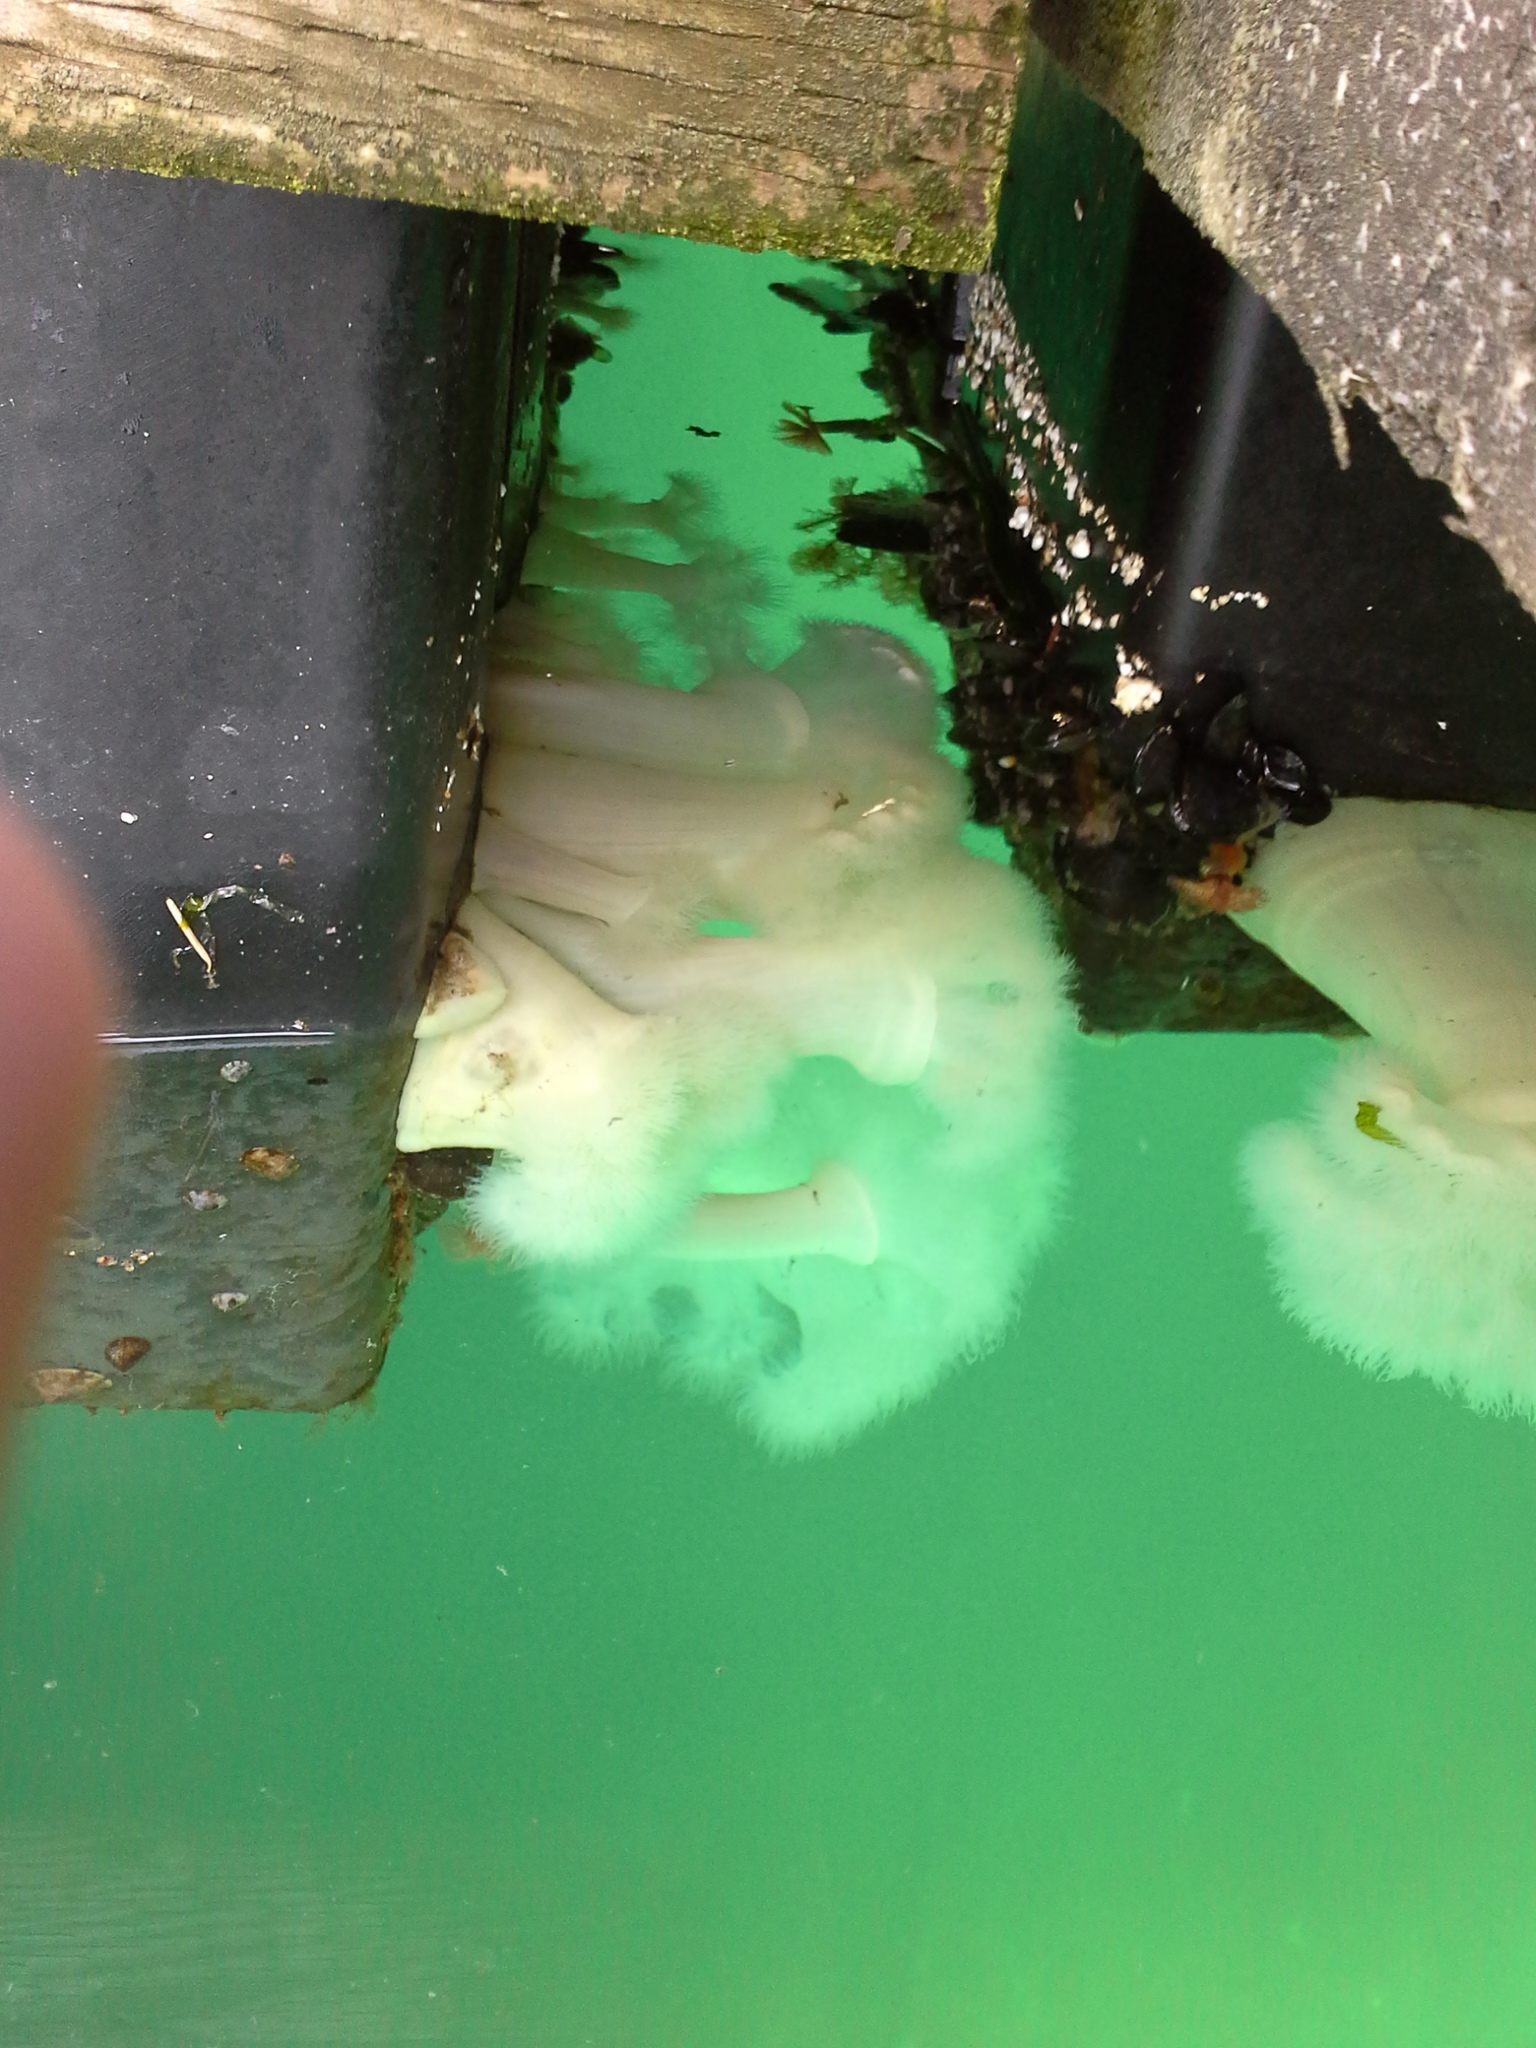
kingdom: Animalia
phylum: Cnidaria
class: Anthozoa
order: Actiniaria
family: Metridiidae
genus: Metridium
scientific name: Metridium farcimen
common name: Gigantic anemone
